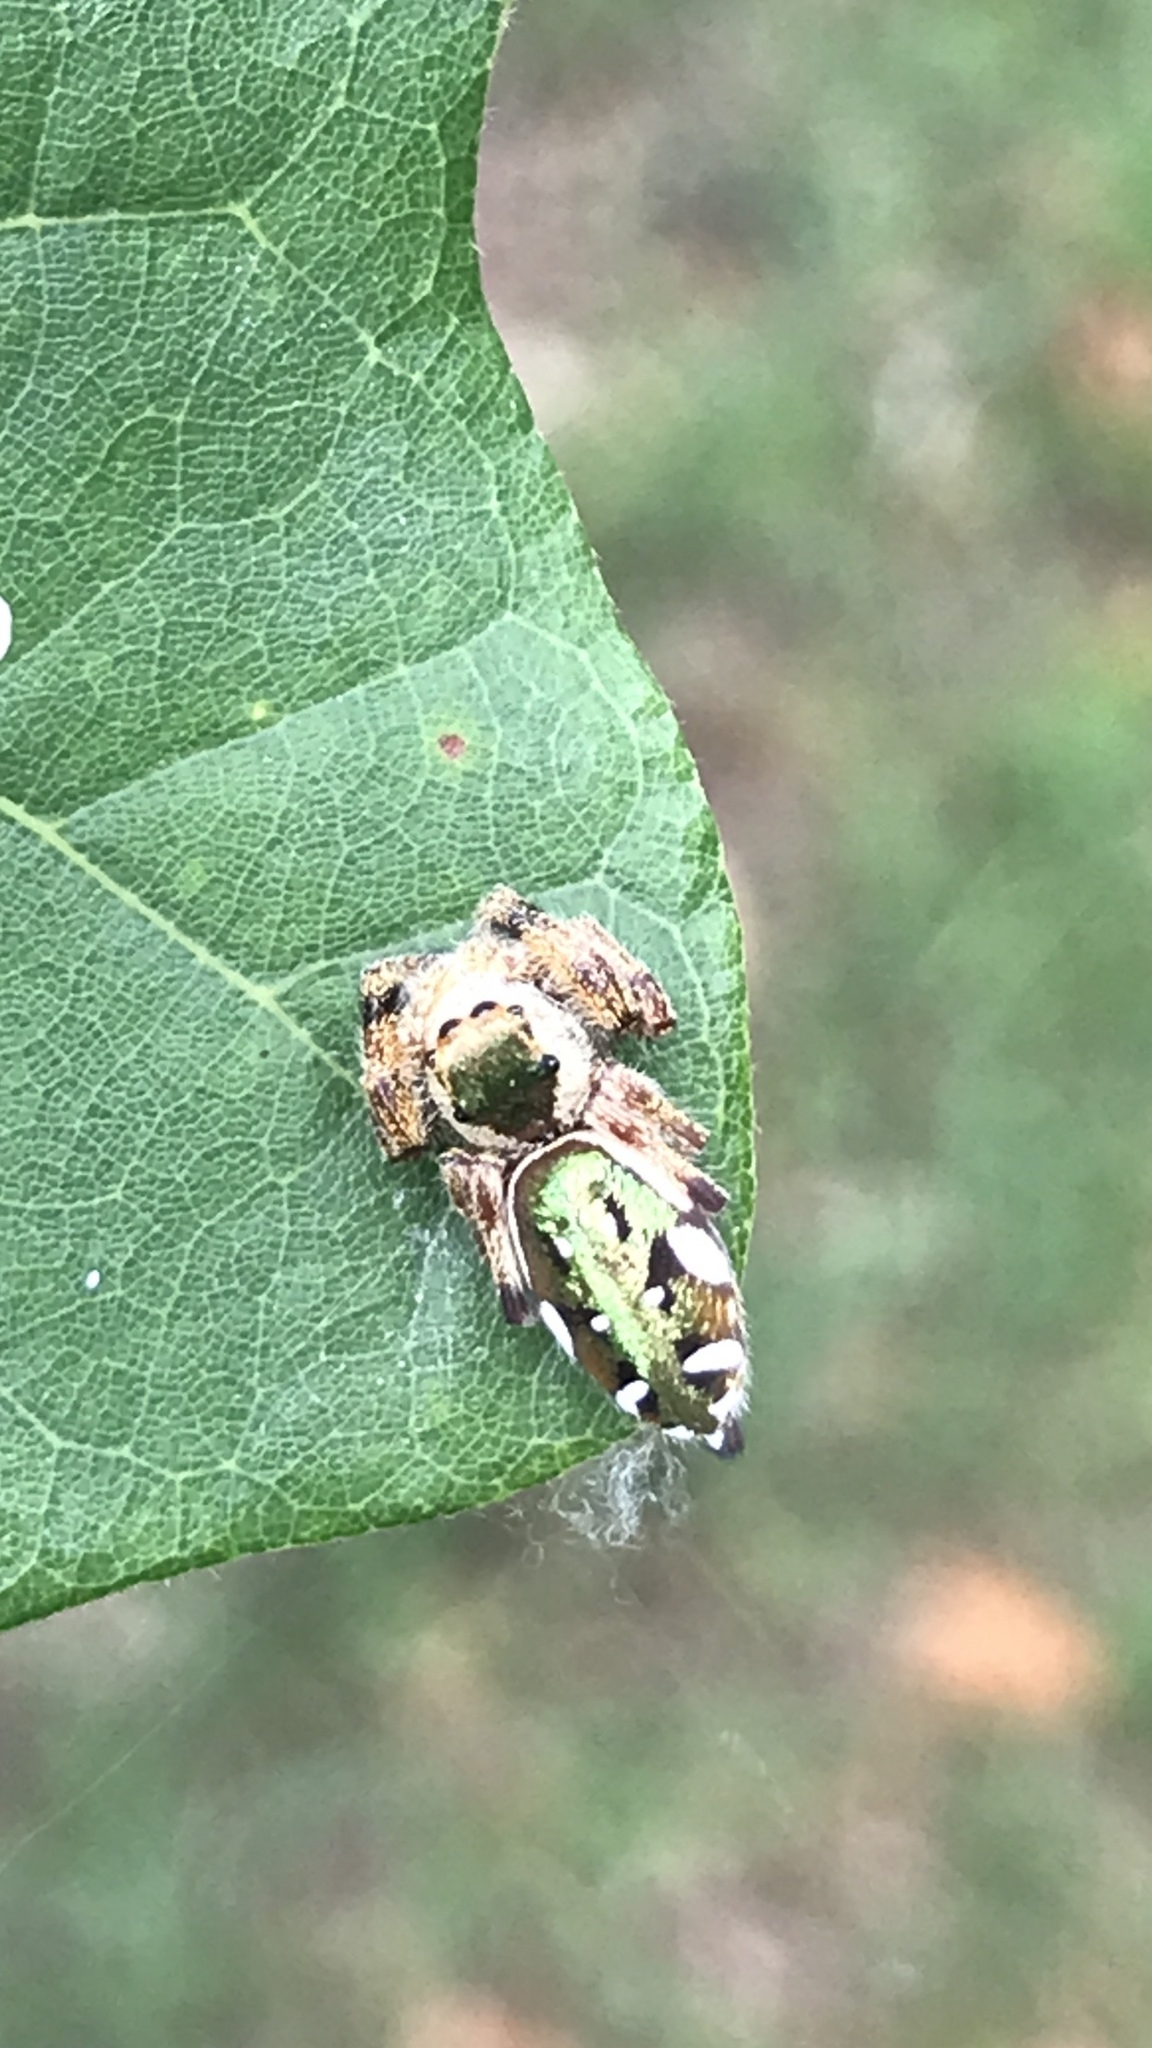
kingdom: Animalia
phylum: Arthropoda
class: Arachnida
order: Araneae
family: Salticidae
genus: Paraphidippus
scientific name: Paraphidippus aurantius
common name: Jumping spiders
